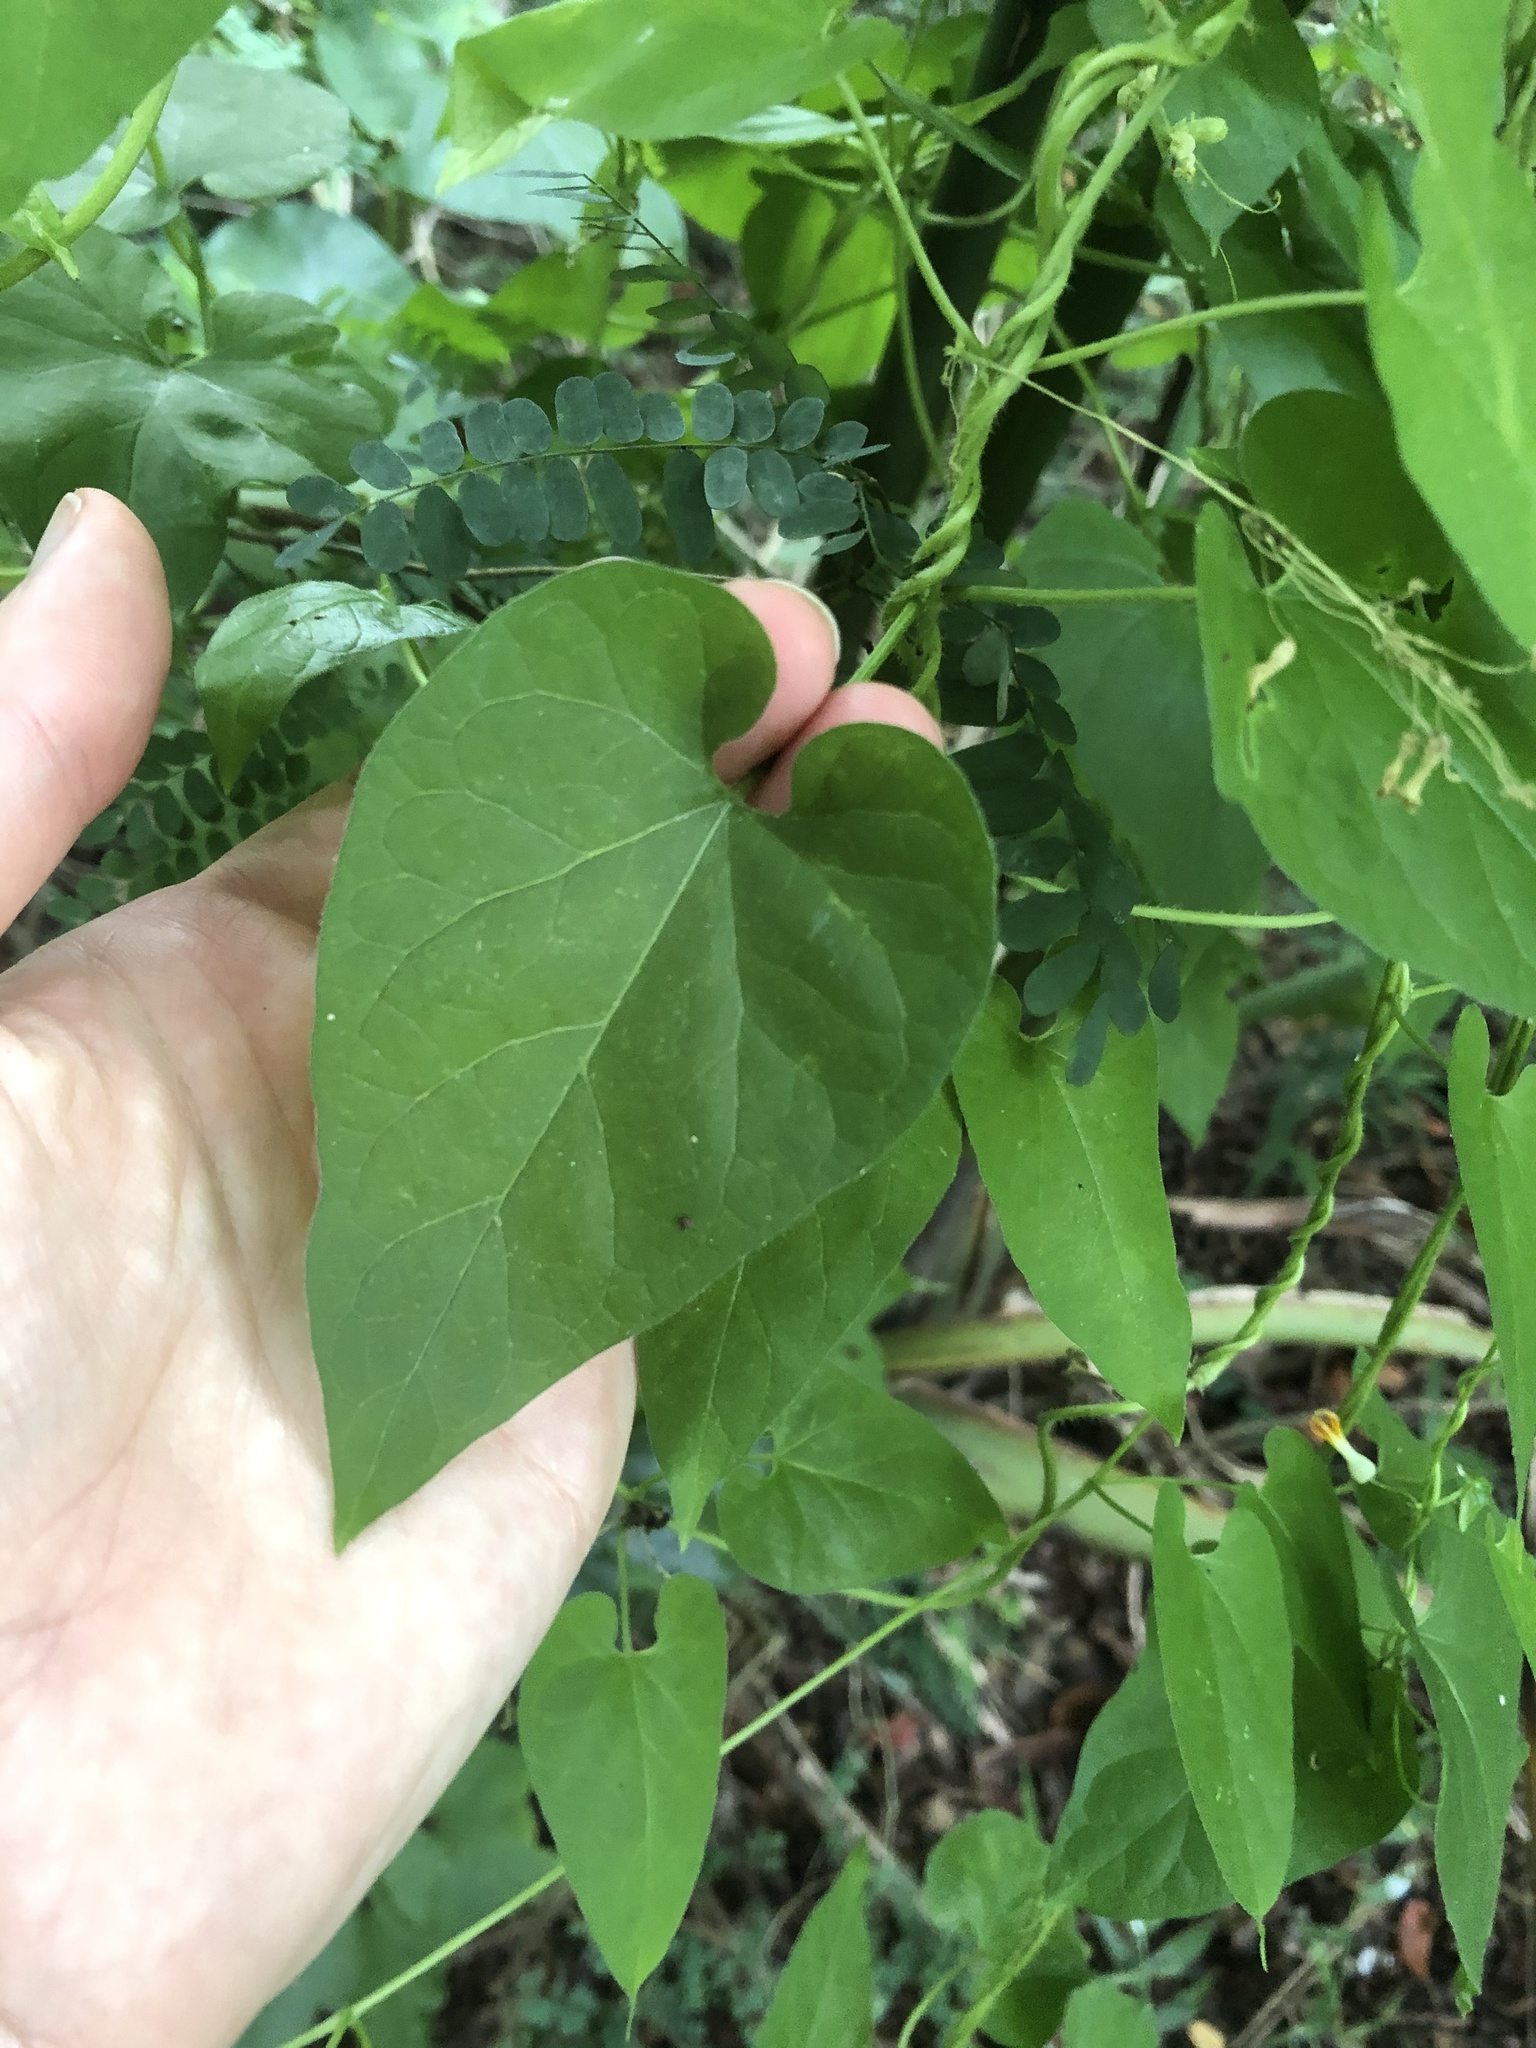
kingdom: Plantae
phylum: Tracheophyta
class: Magnoliopsida
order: Gentianales
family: Apocynaceae
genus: Riocreuxia
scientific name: Riocreuxia torulosa
